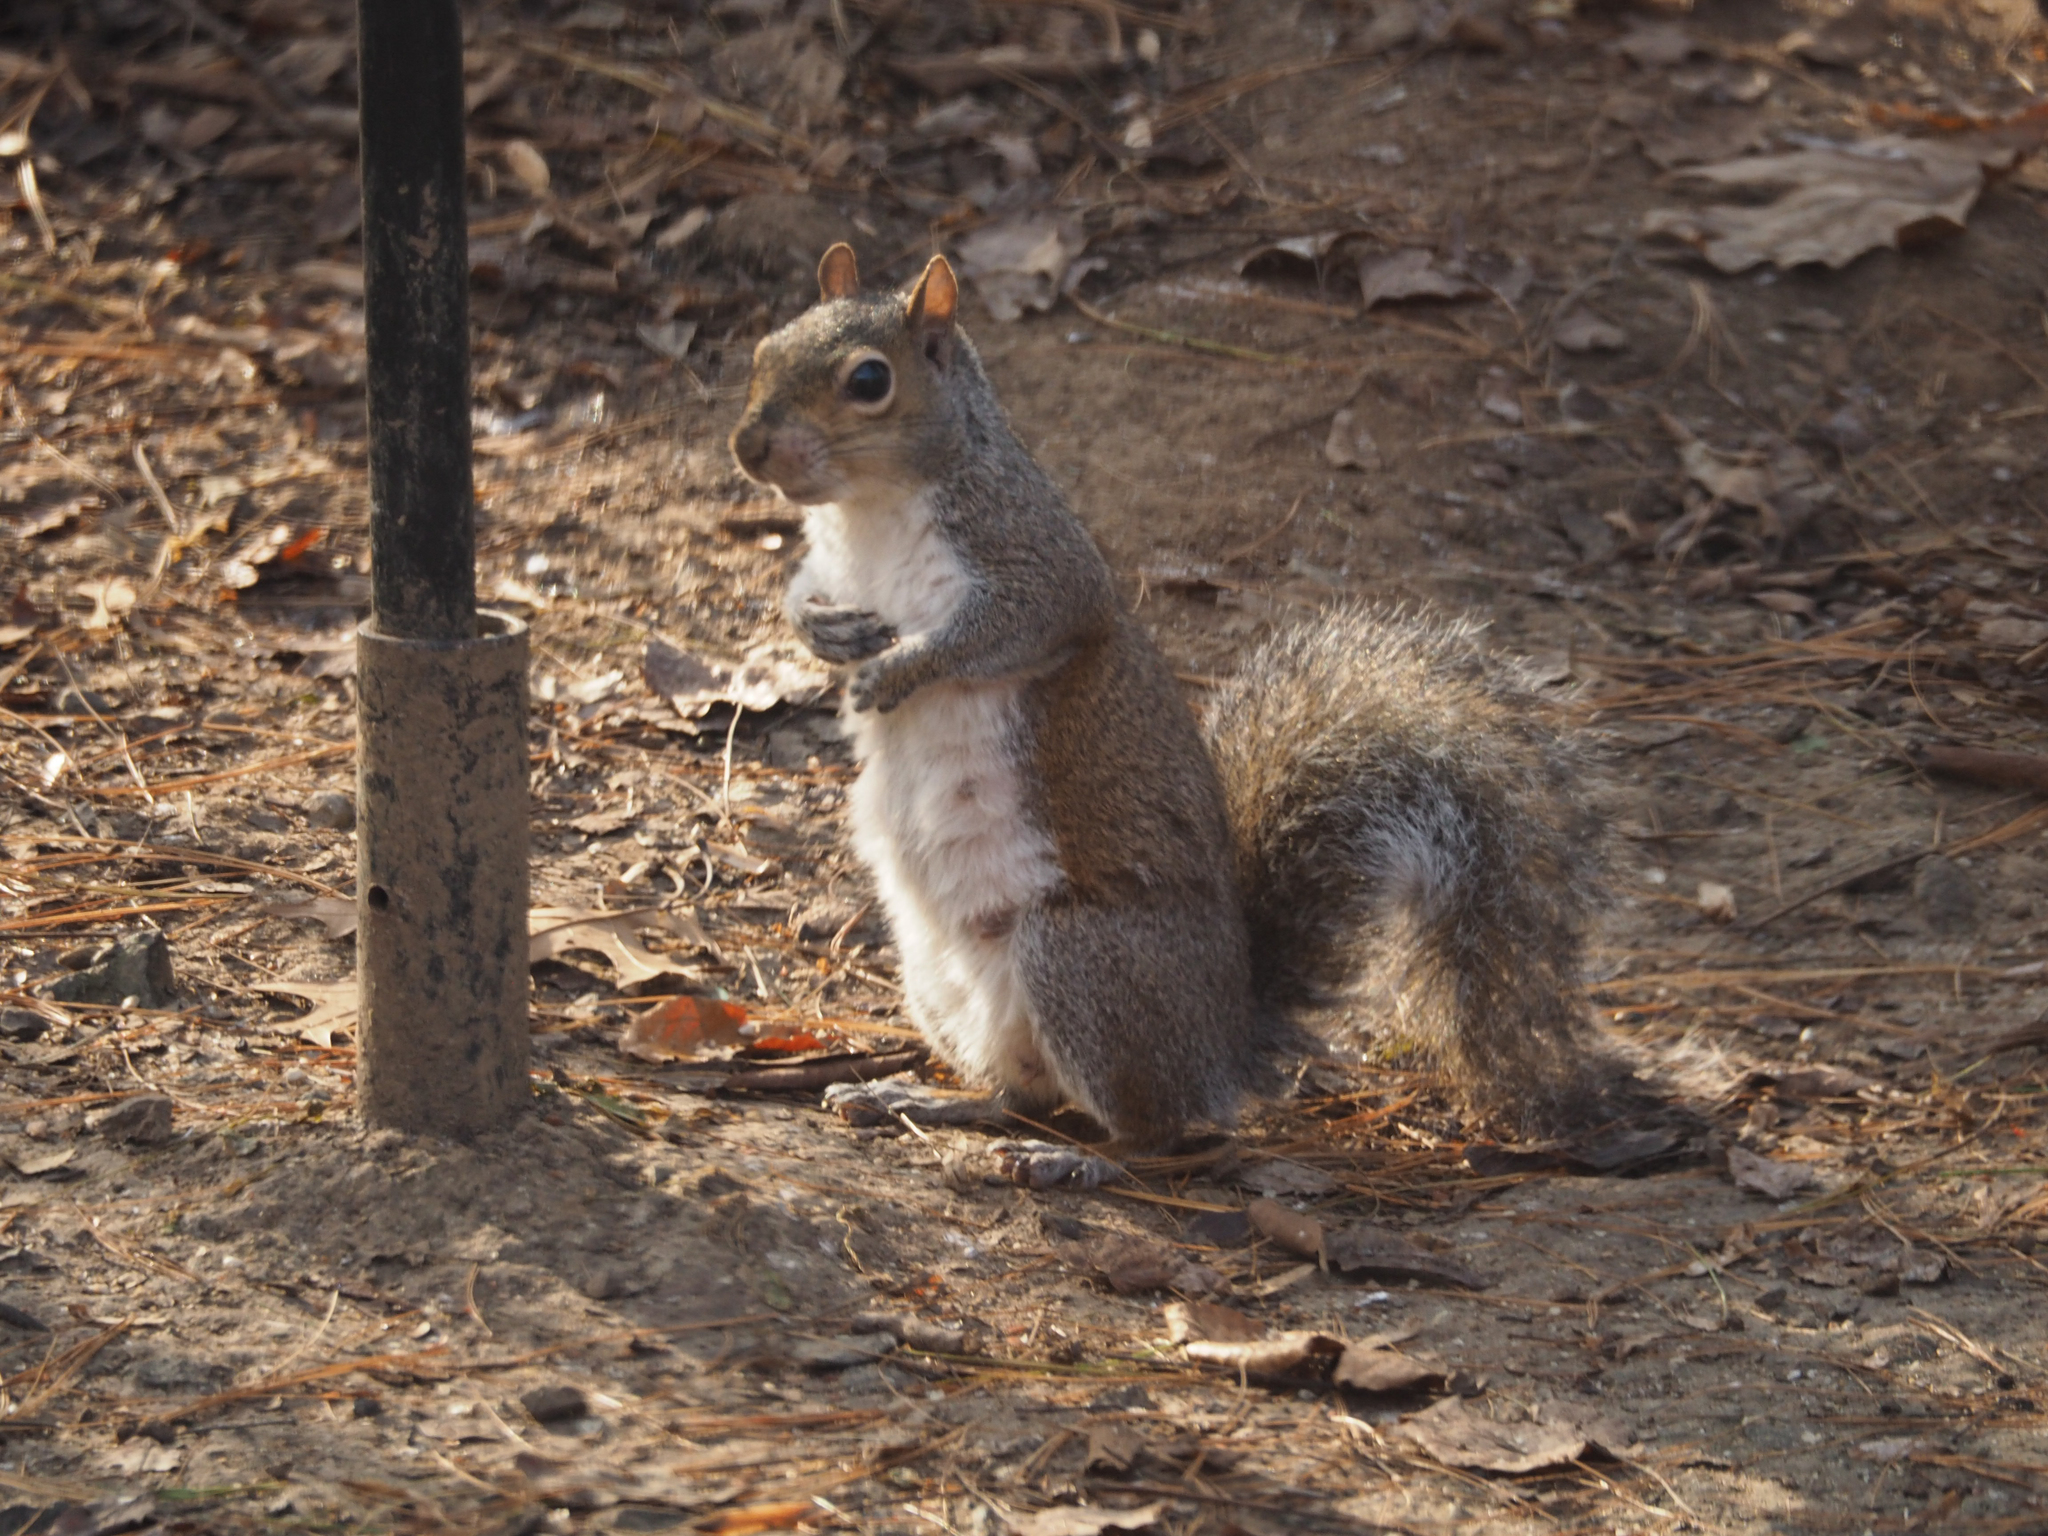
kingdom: Animalia
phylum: Chordata
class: Mammalia
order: Rodentia
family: Sciuridae
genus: Sciurus
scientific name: Sciurus carolinensis
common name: Eastern gray squirrel
